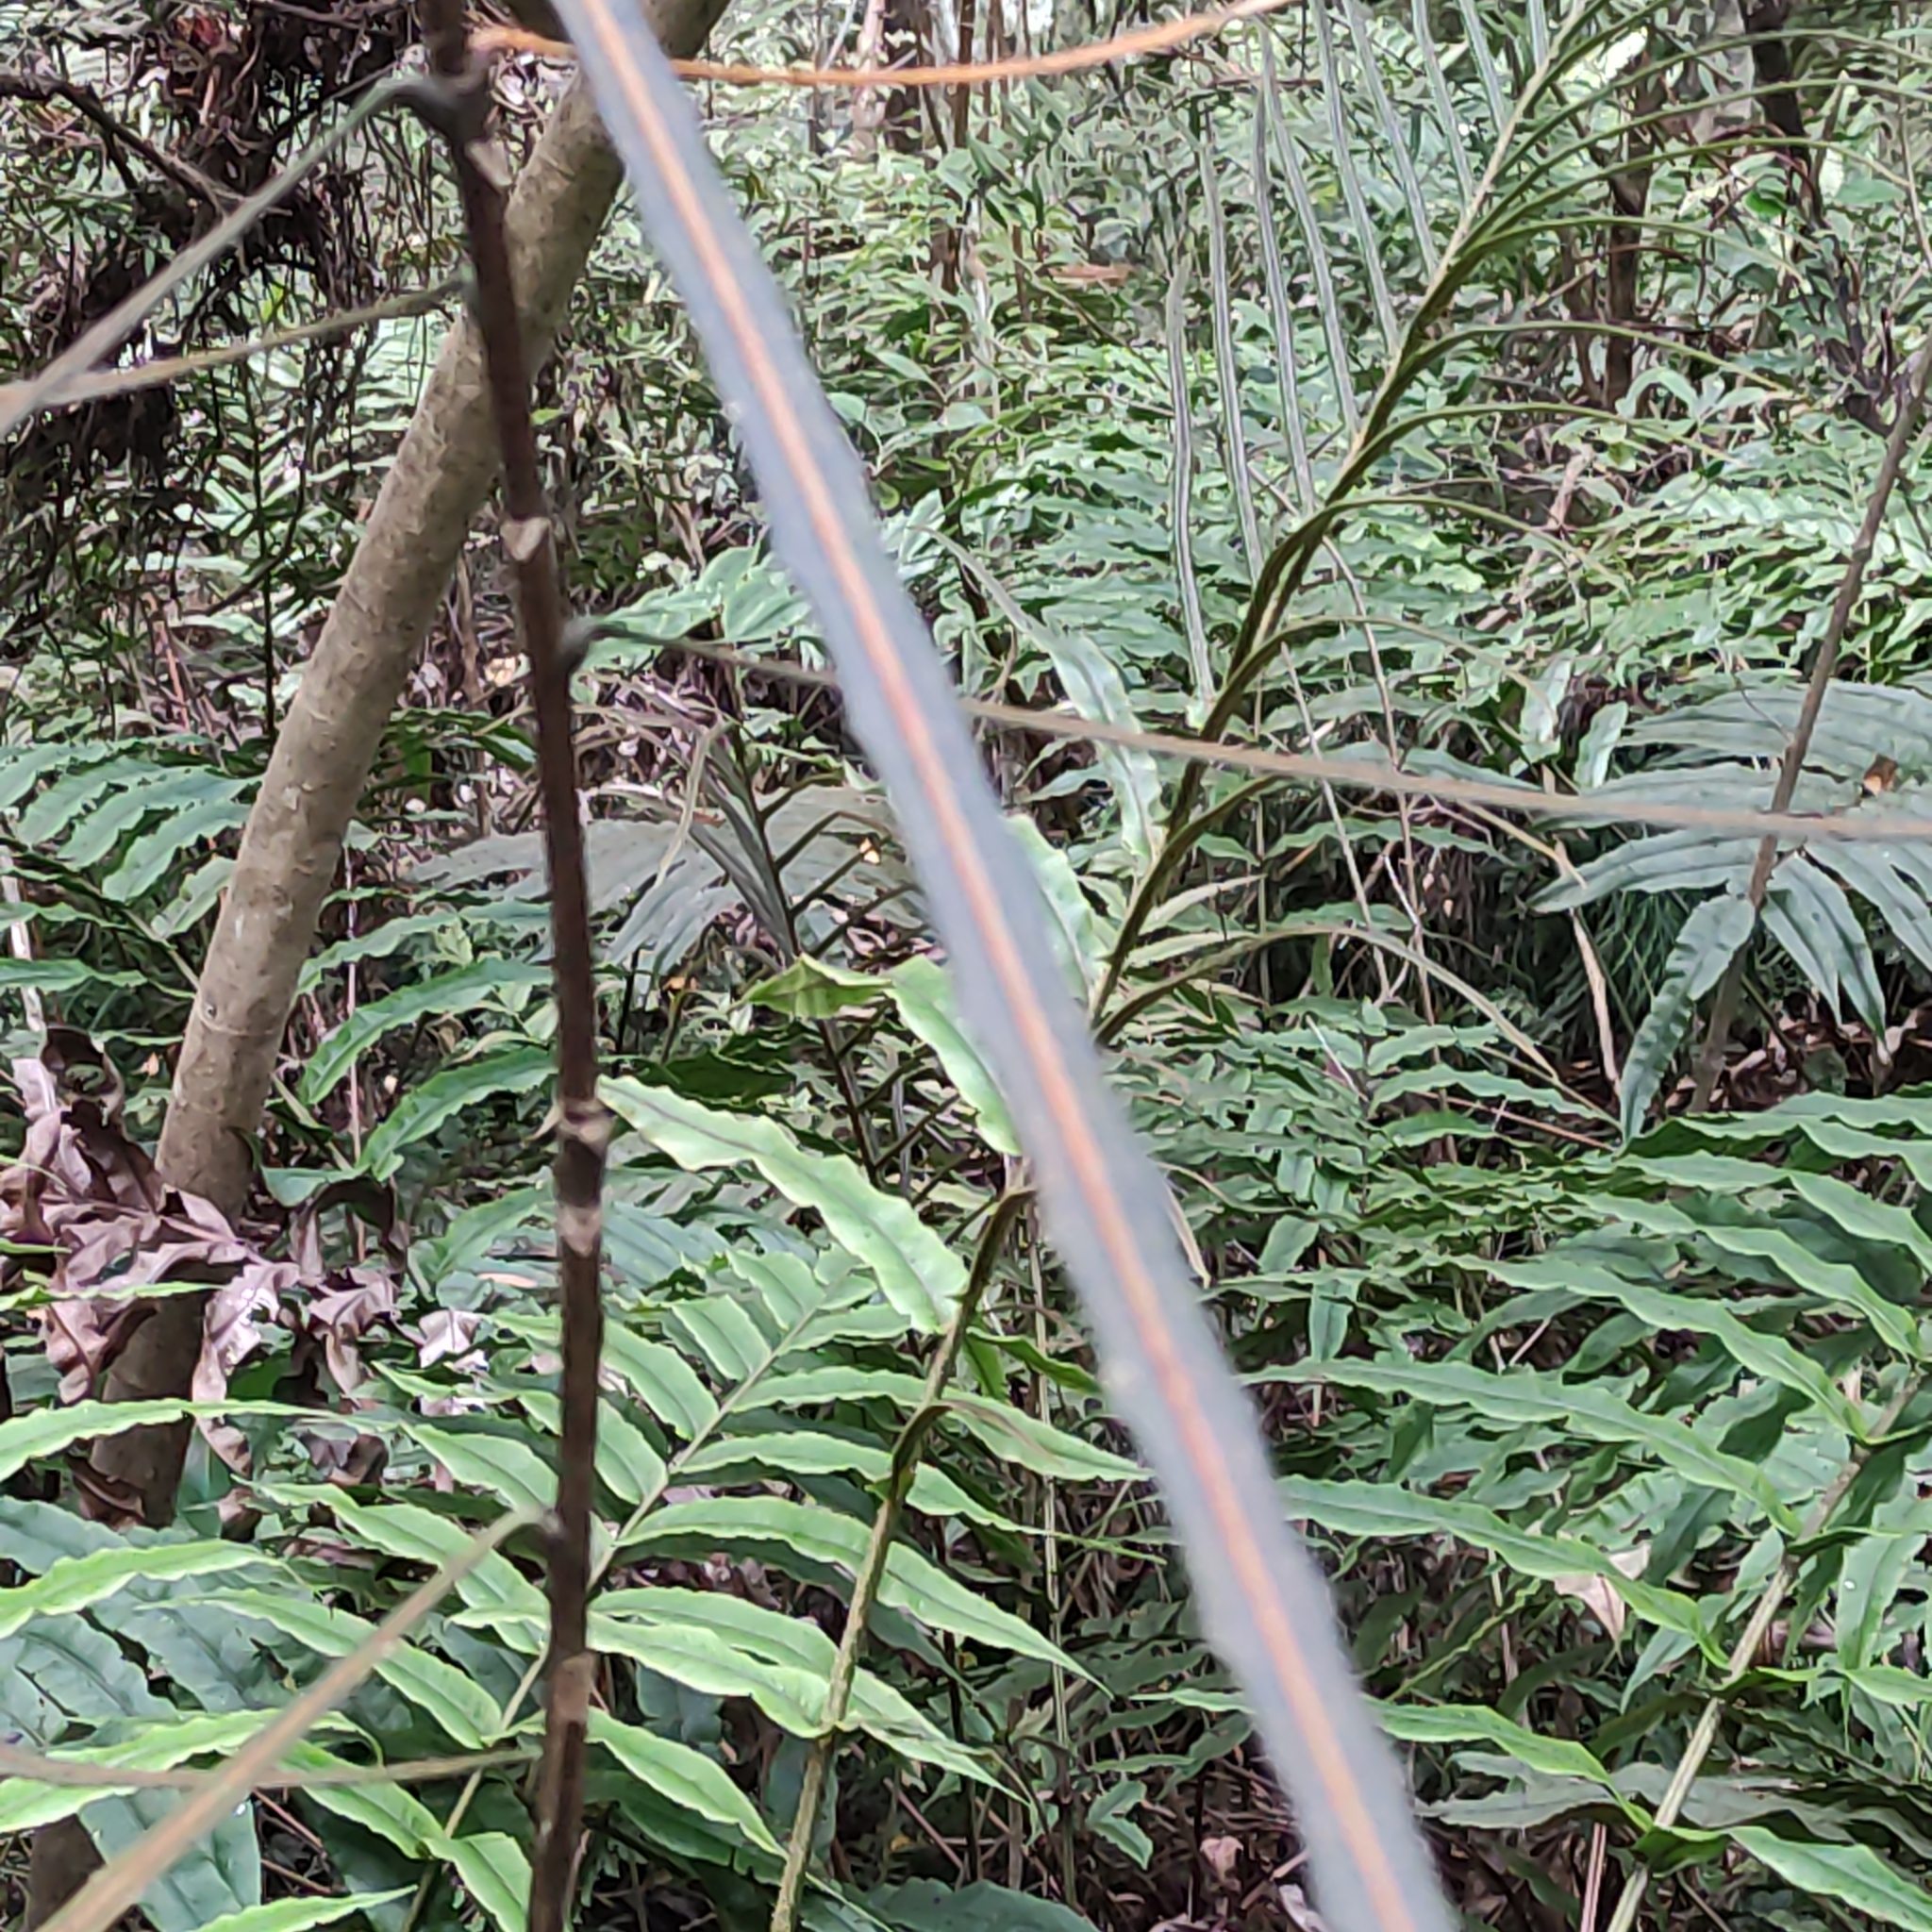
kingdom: Plantae
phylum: Tracheophyta
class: Magnoliopsida
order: Apiales
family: Araliaceae
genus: Pseudopanax
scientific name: Pseudopanax crassifolius
